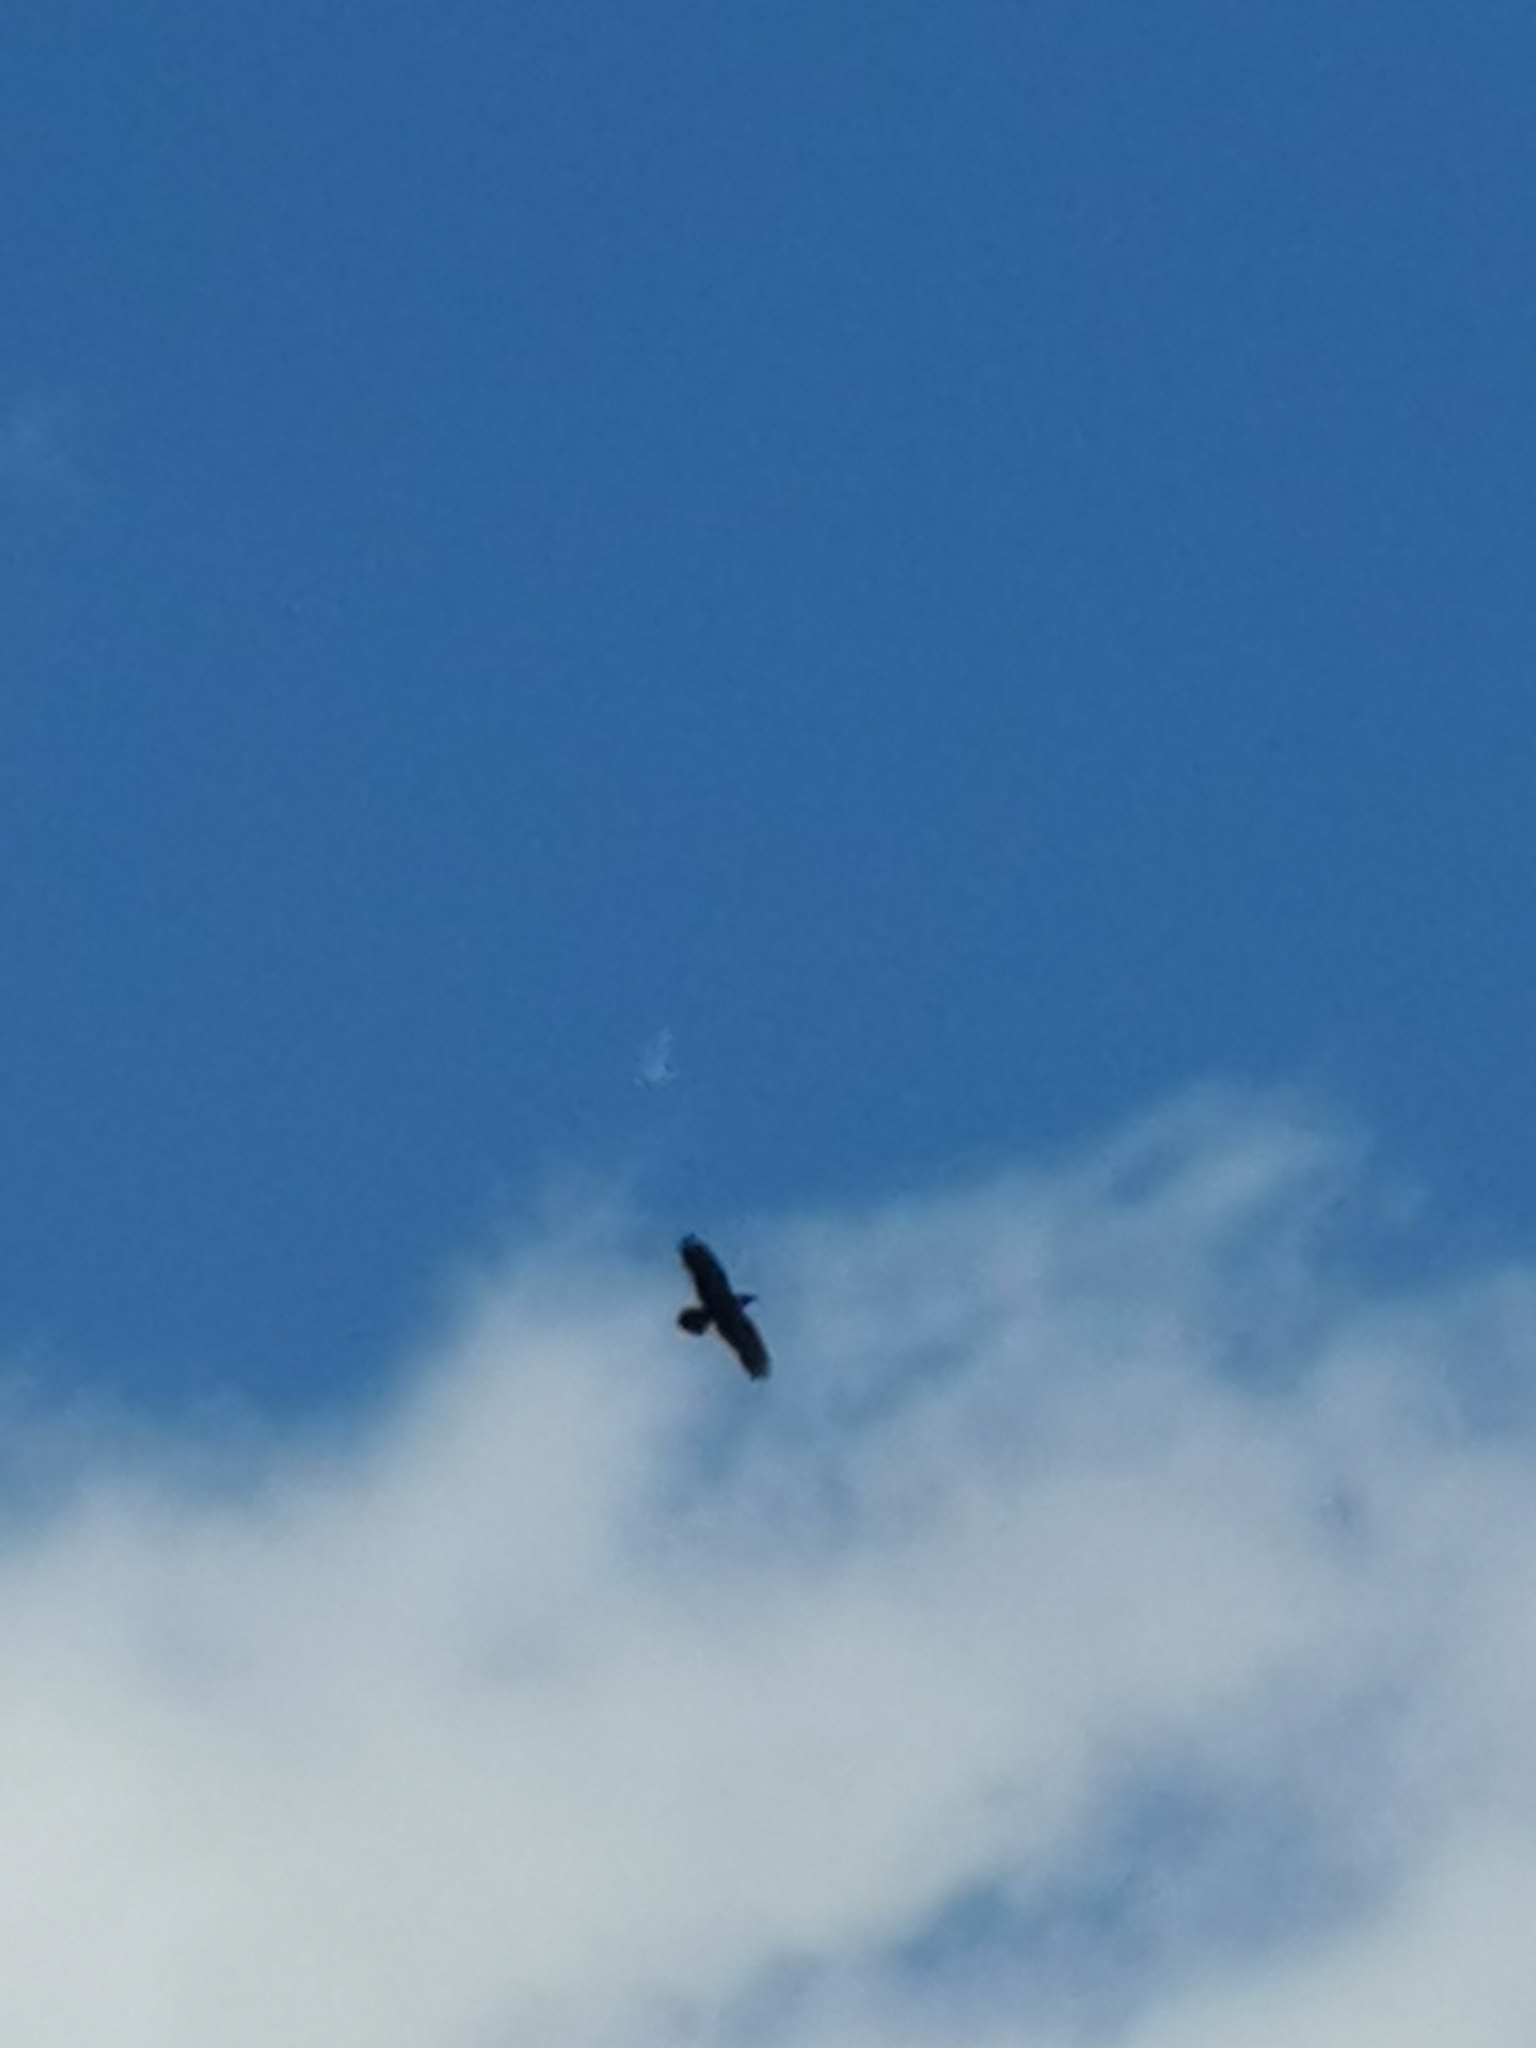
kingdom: Animalia
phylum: Chordata
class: Aves
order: Passeriformes
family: Corvidae
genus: Corvus
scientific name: Corvus corax
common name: Common raven
